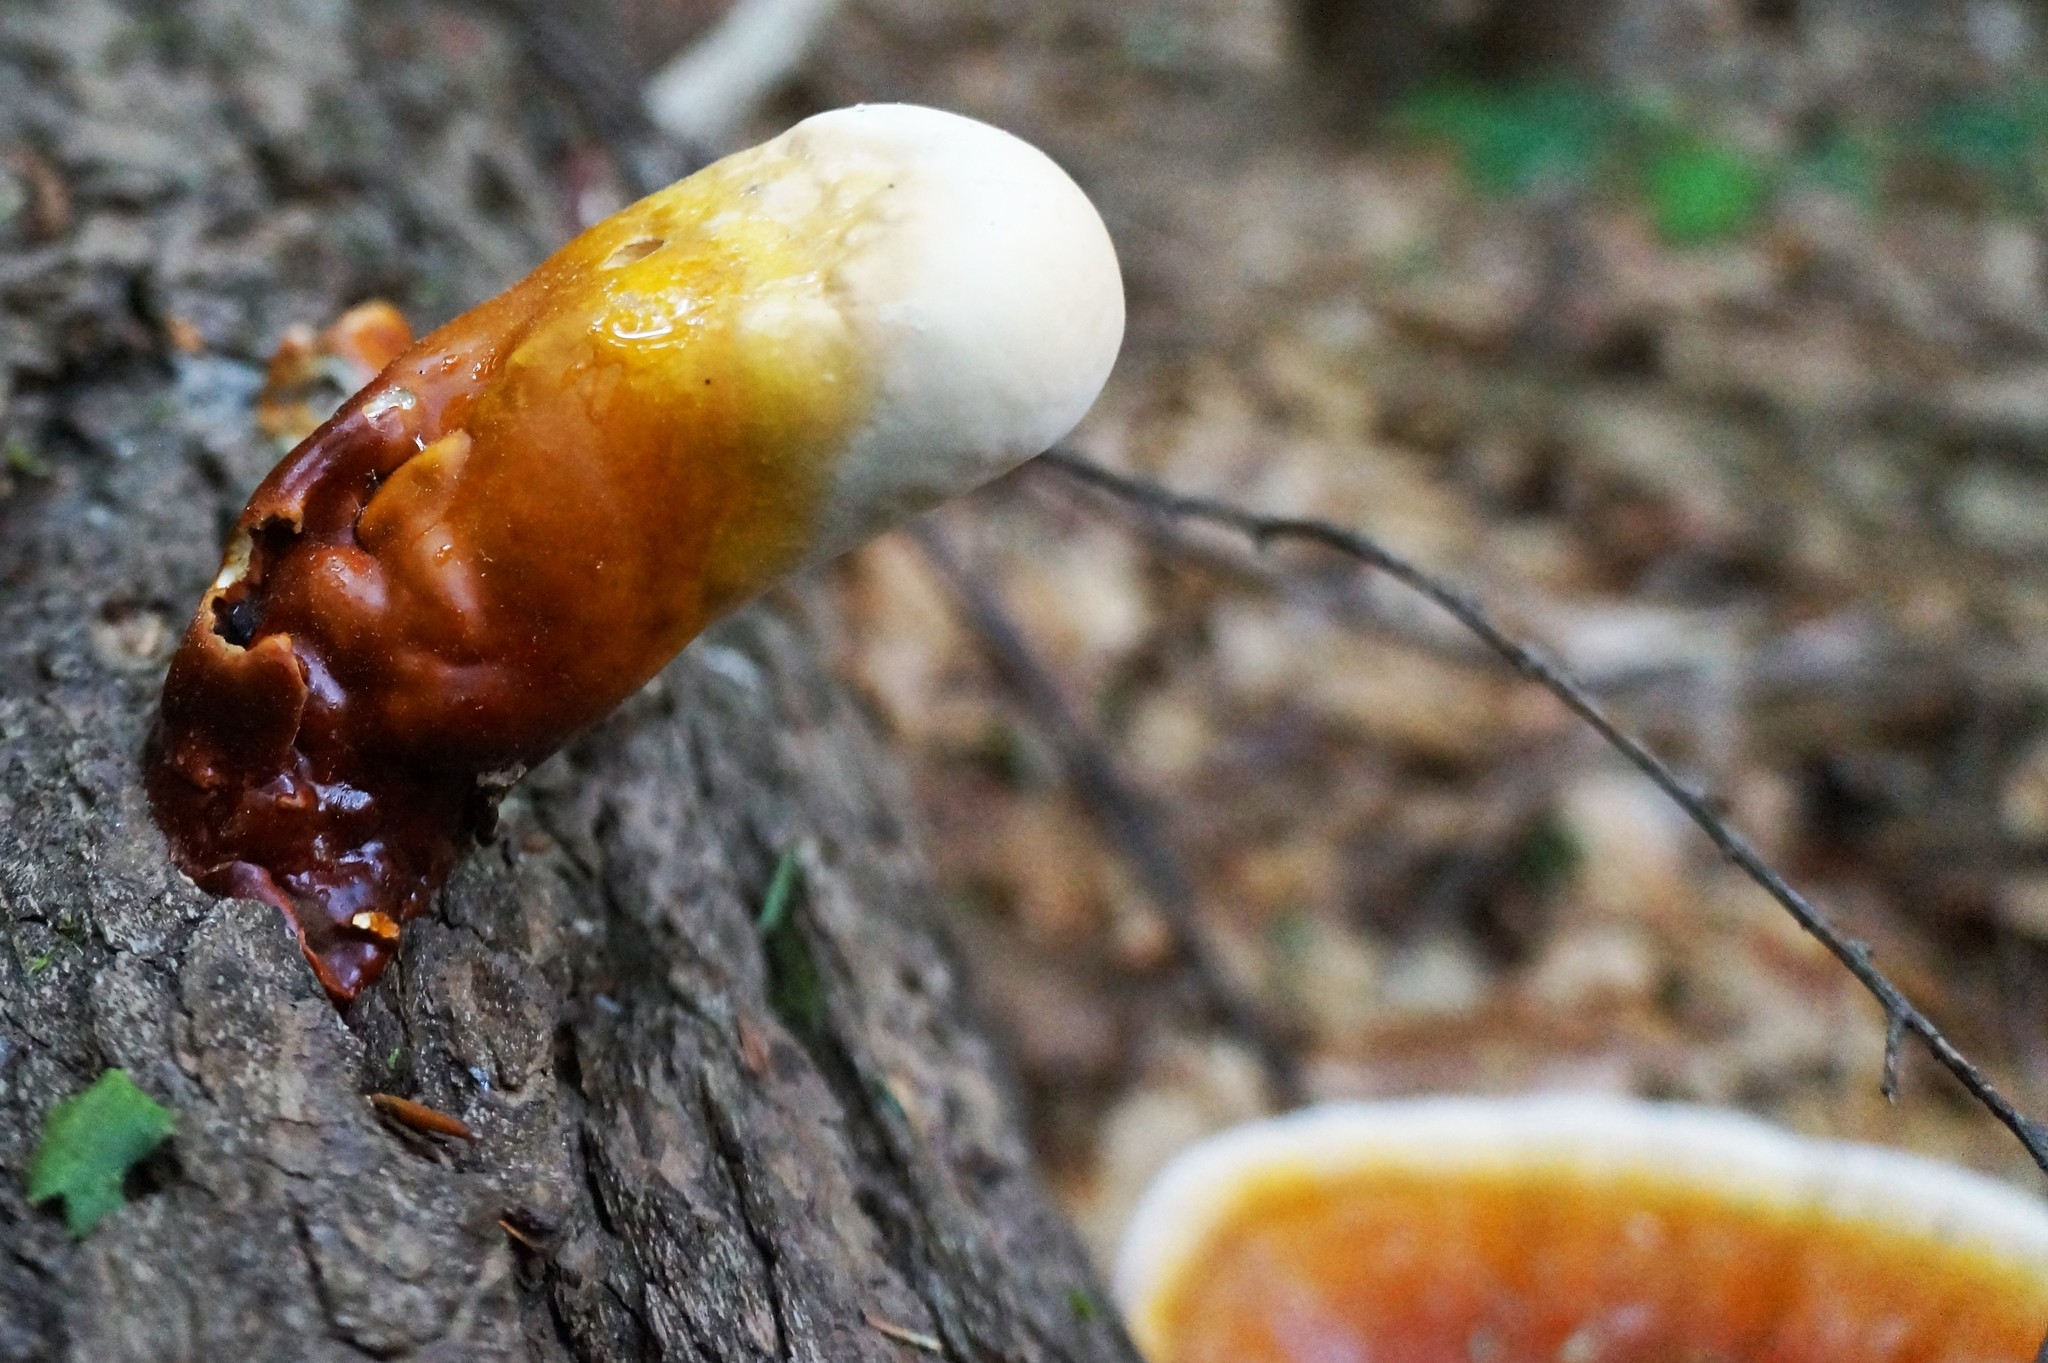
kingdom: Fungi
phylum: Basidiomycota
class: Agaricomycetes
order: Polyporales
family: Polyporaceae
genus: Ganoderma
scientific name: Ganoderma tsugae
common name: Hemlock varnish shelf
